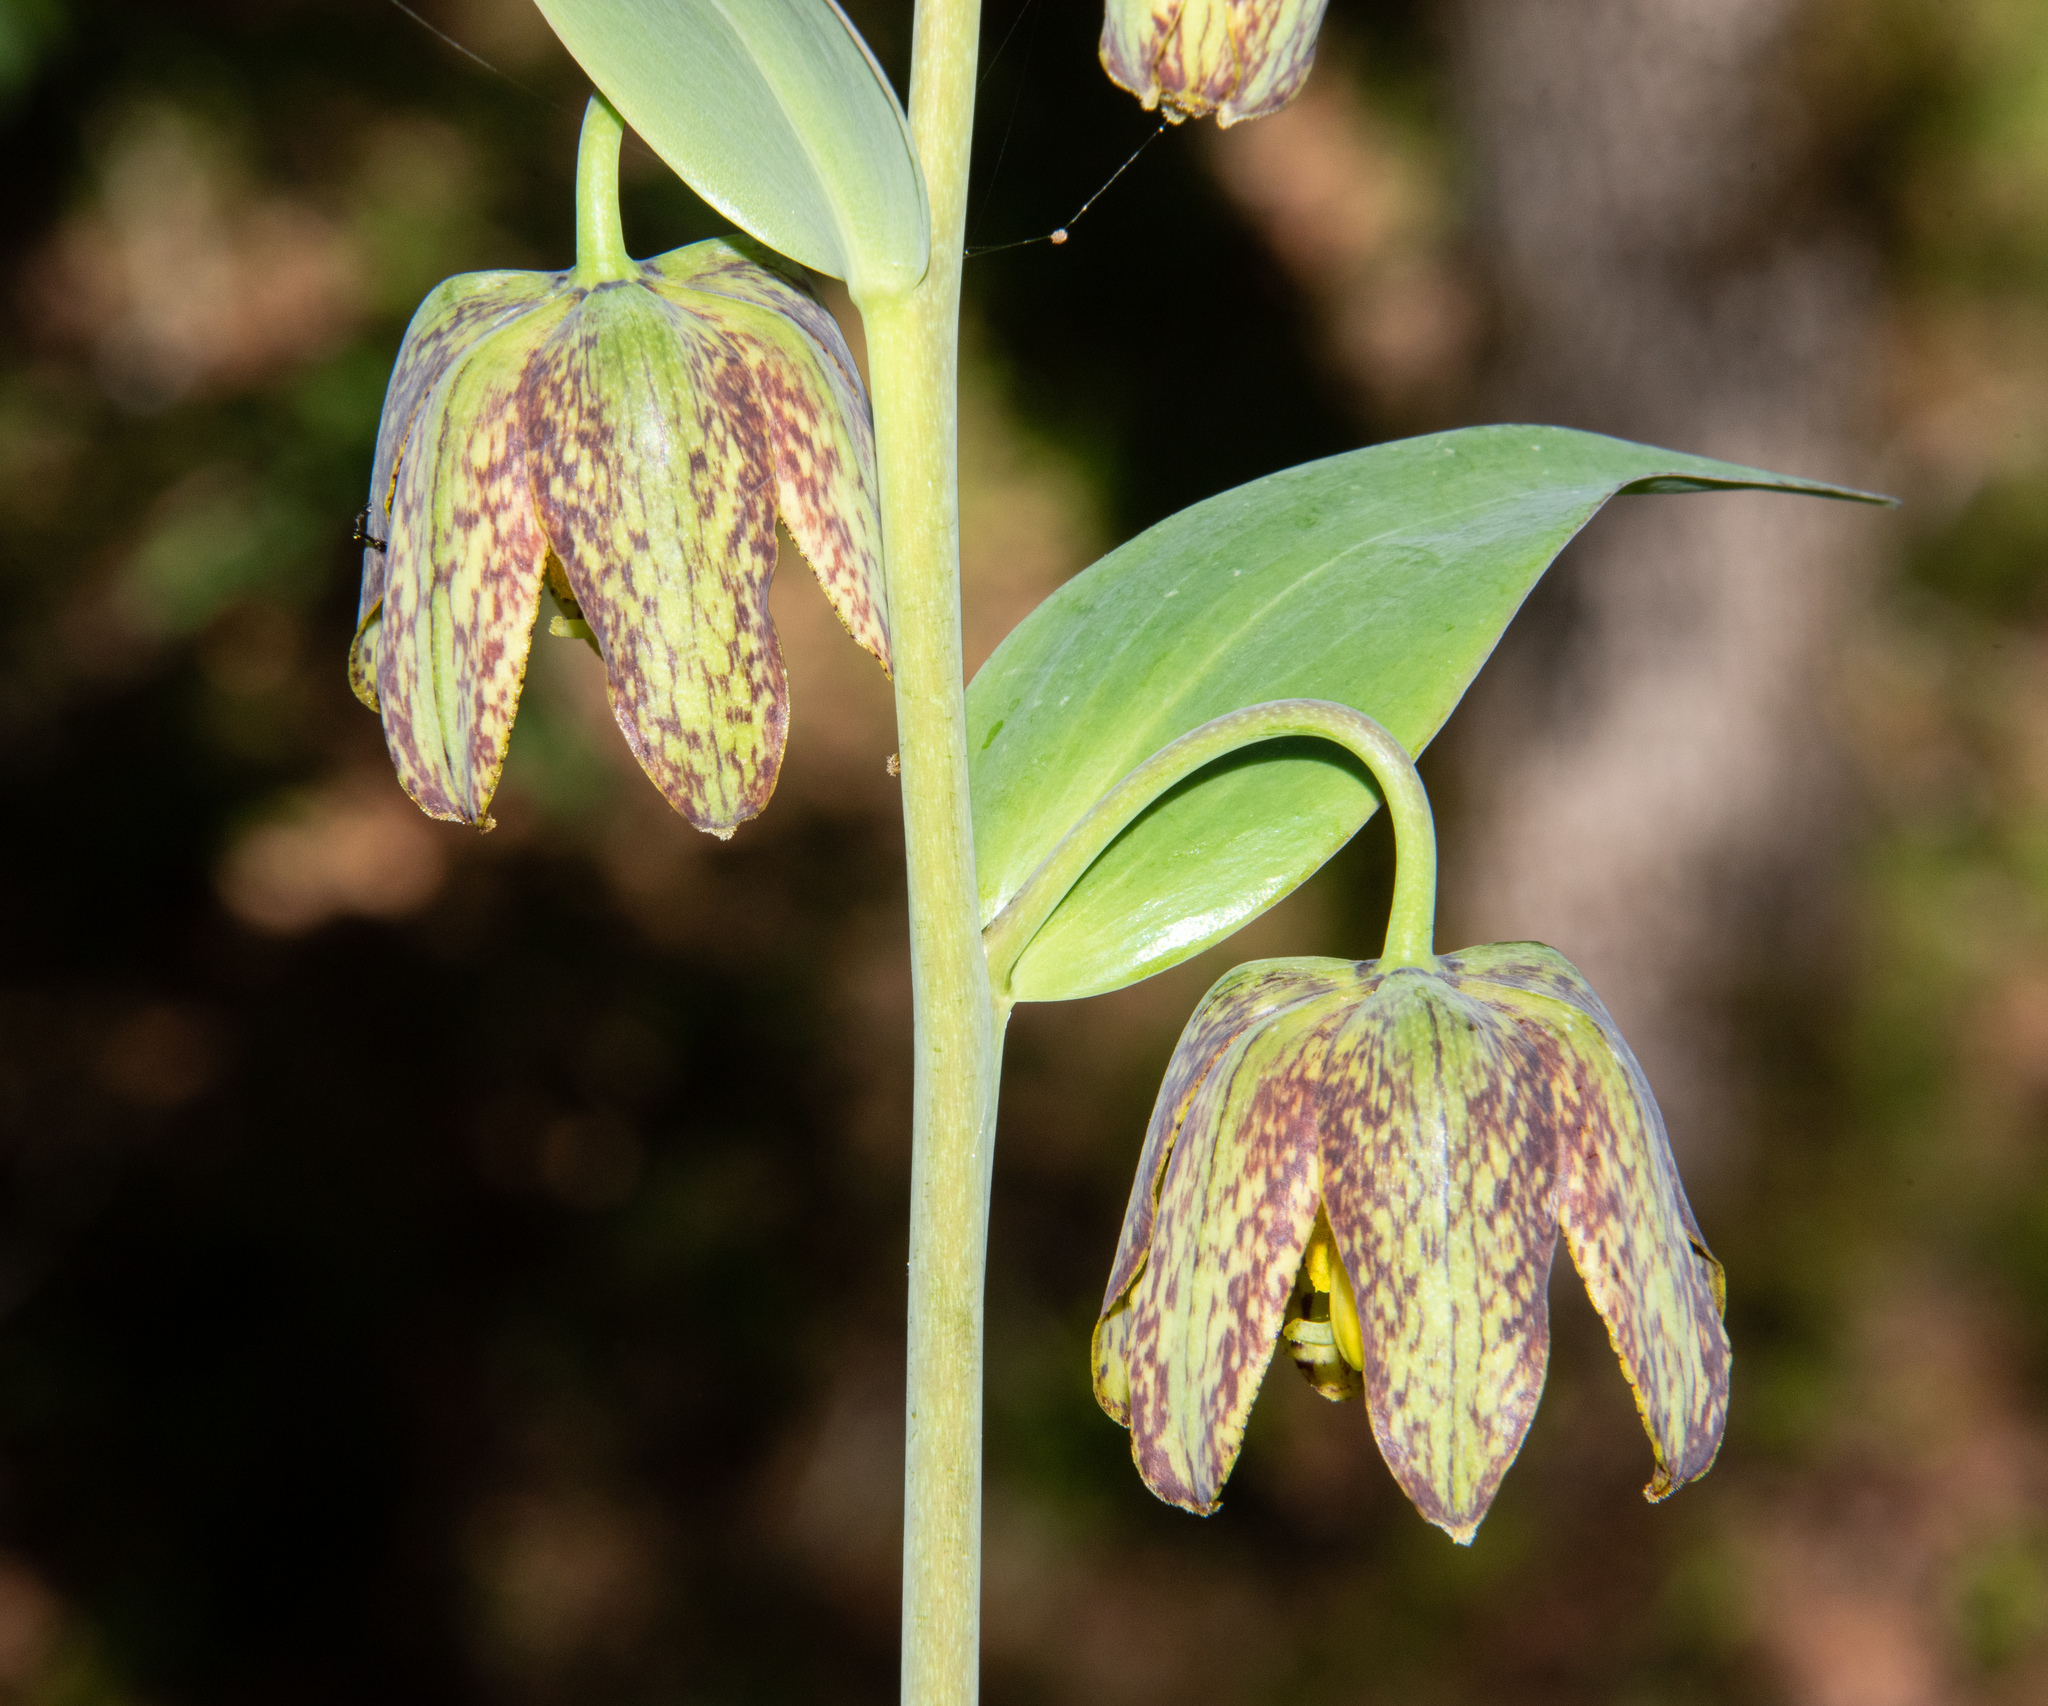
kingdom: Plantae
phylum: Tracheophyta
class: Liliopsida
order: Liliales
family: Liliaceae
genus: Fritillaria
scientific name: Fritillaria affinis
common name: Ojai fritillary
